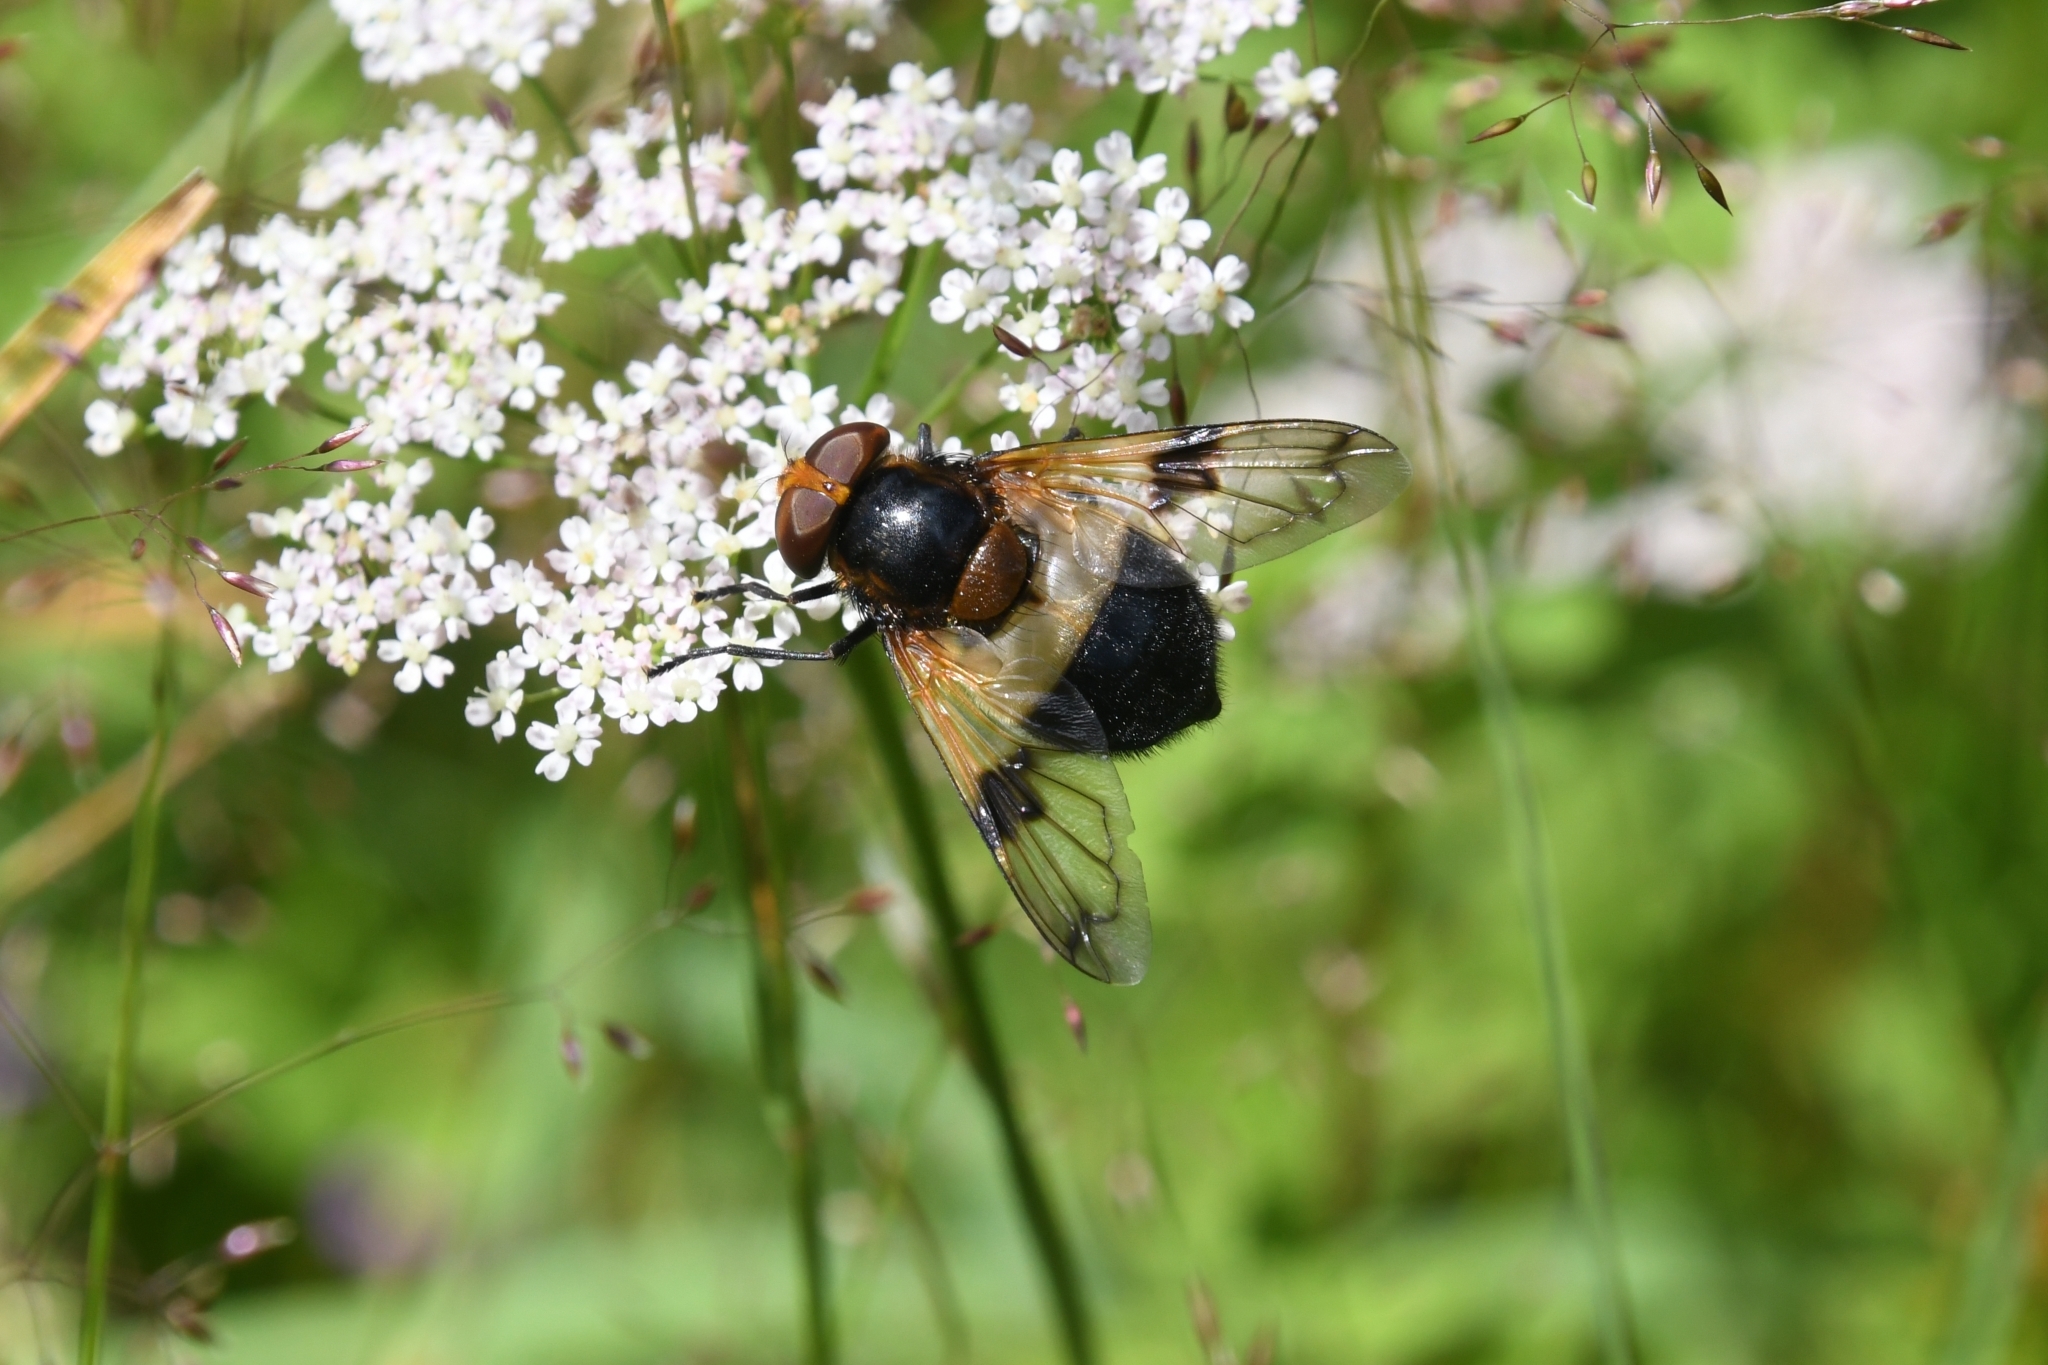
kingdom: Animalia
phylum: Arthropoda
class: Insecta
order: Diptera
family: Syrphidae
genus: Volucella
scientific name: Volucella pellucens
